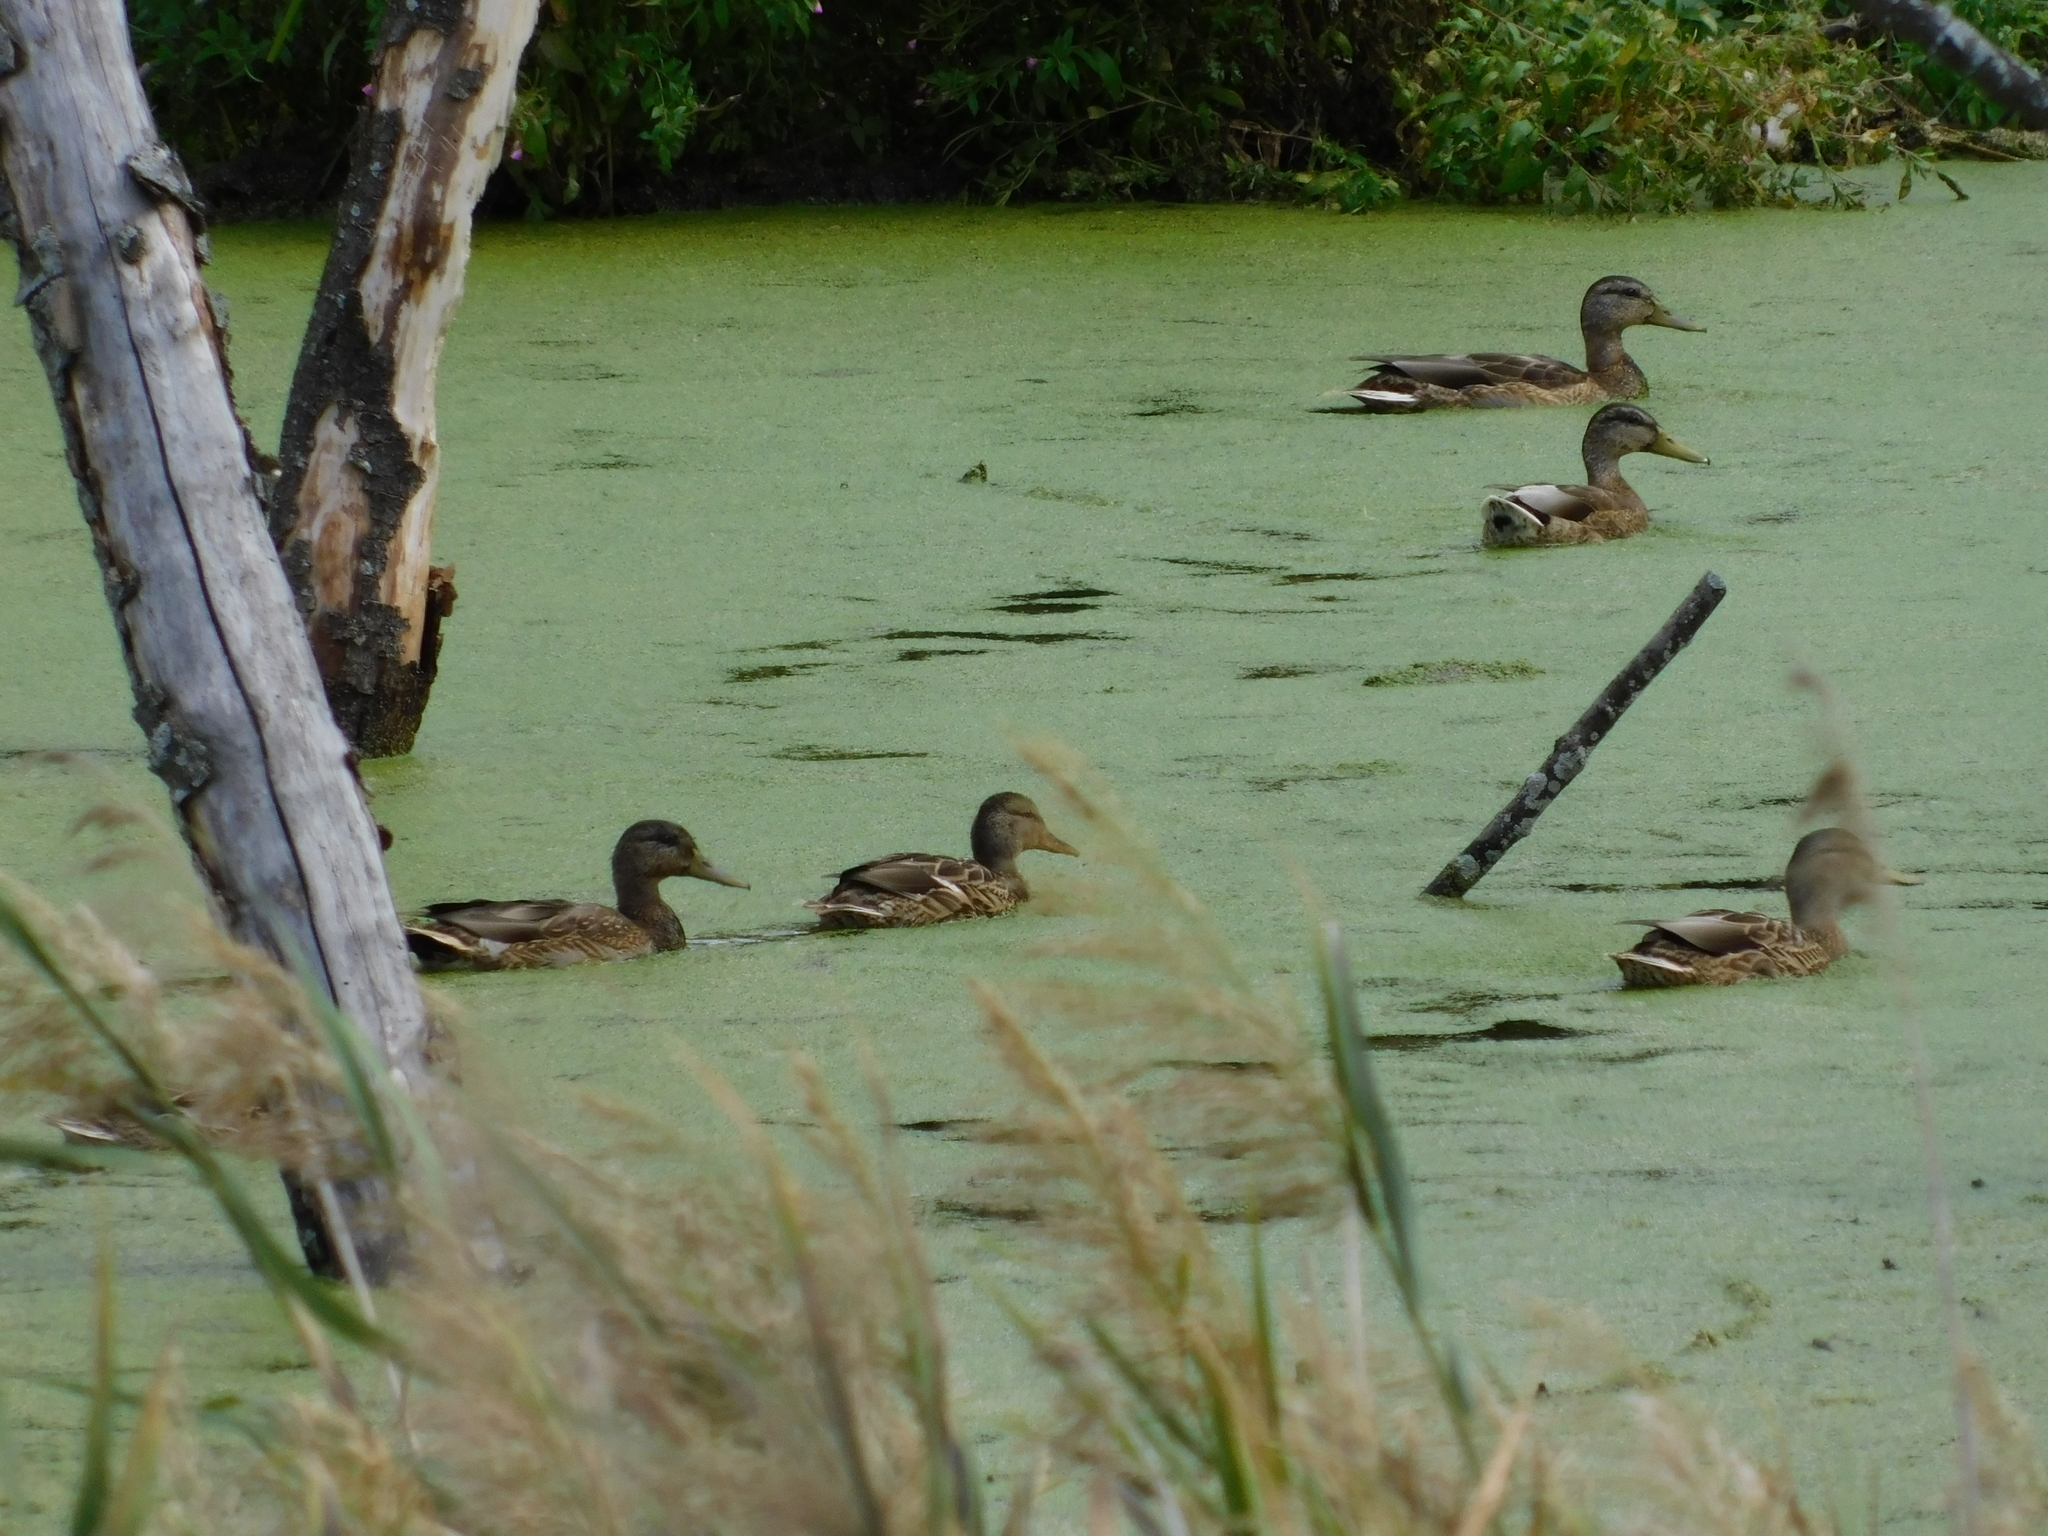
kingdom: Animalia
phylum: Chordata
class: Aves
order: Anseriformes
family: Anatidae
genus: Anas
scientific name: Anas platyrhynchos
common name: Mallard
